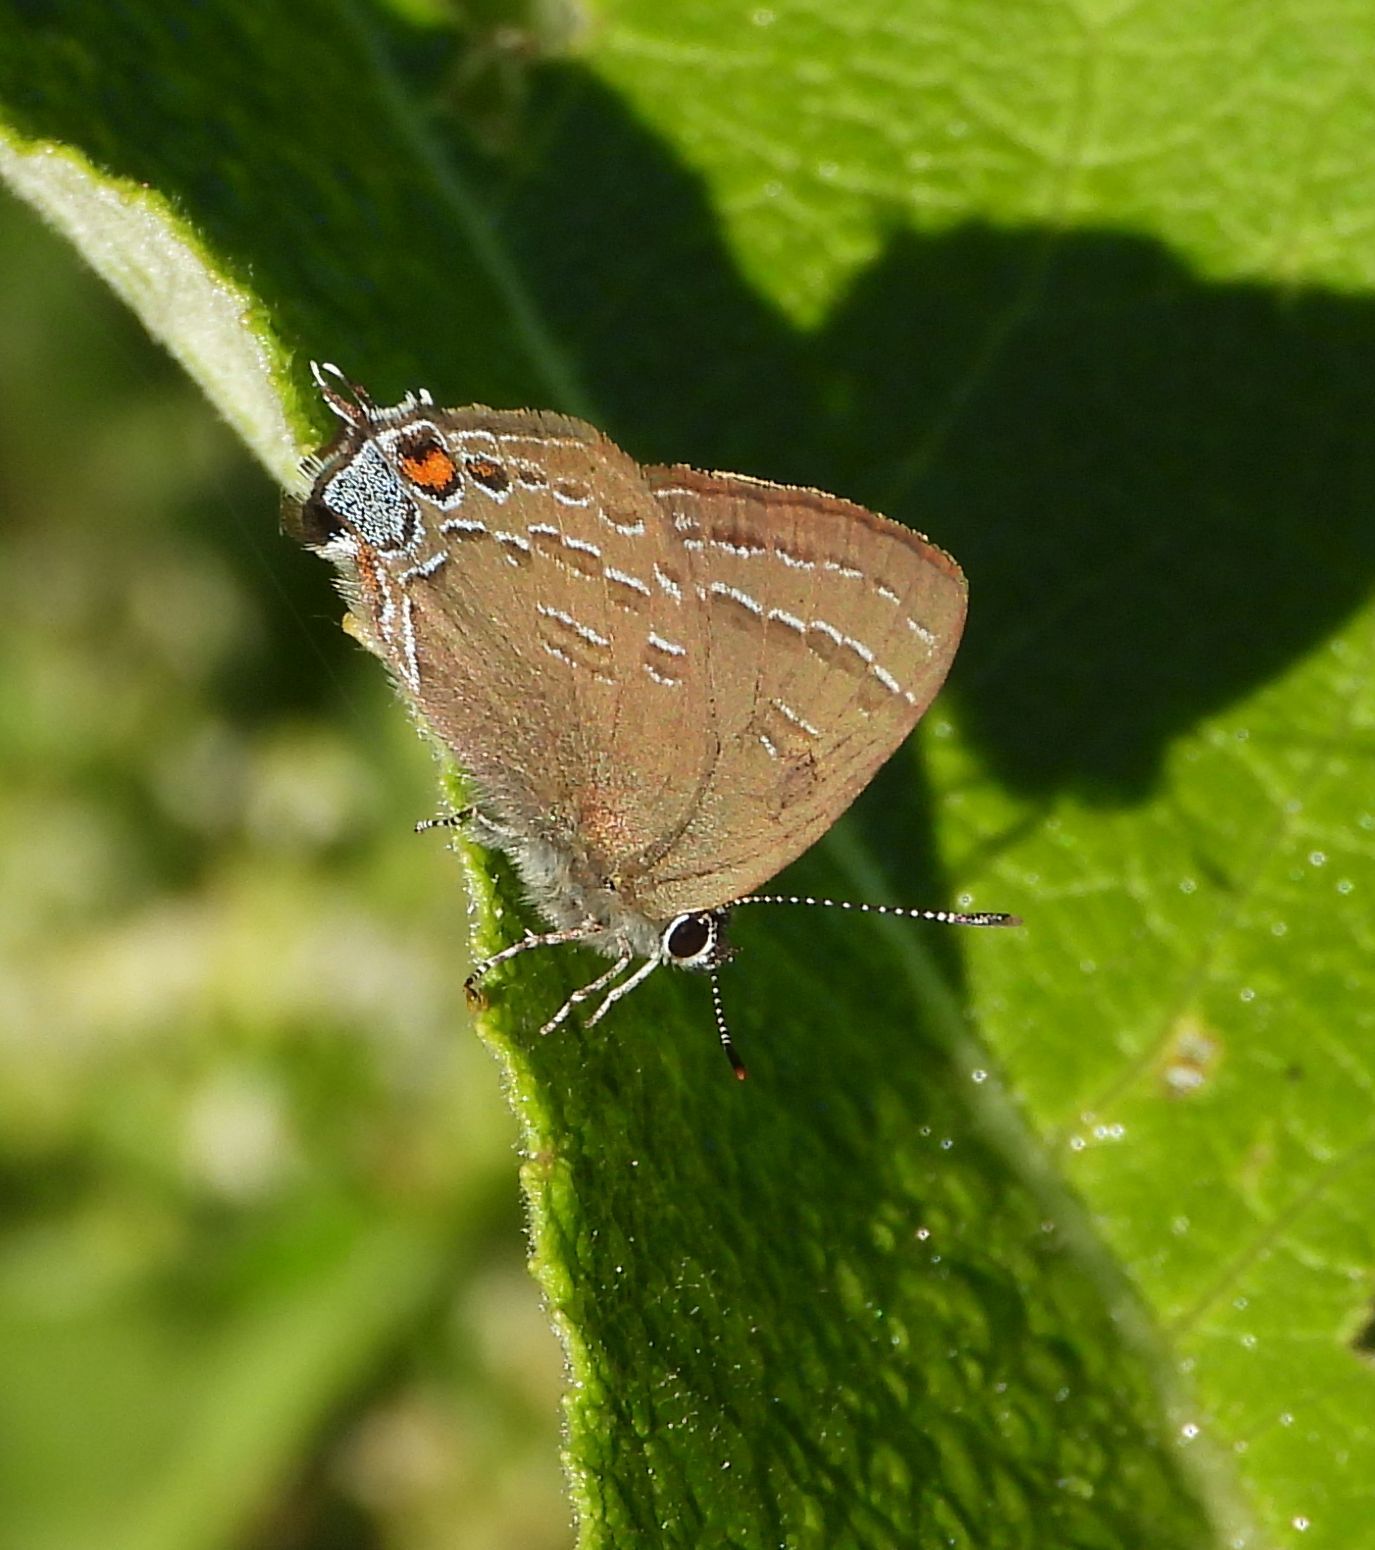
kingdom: Animalia
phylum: Arthropoda
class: Insecta
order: Lepidoptera
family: Lycaenidae
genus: Satyrium
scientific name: Satyrium calanus
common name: Banded hairstreak
